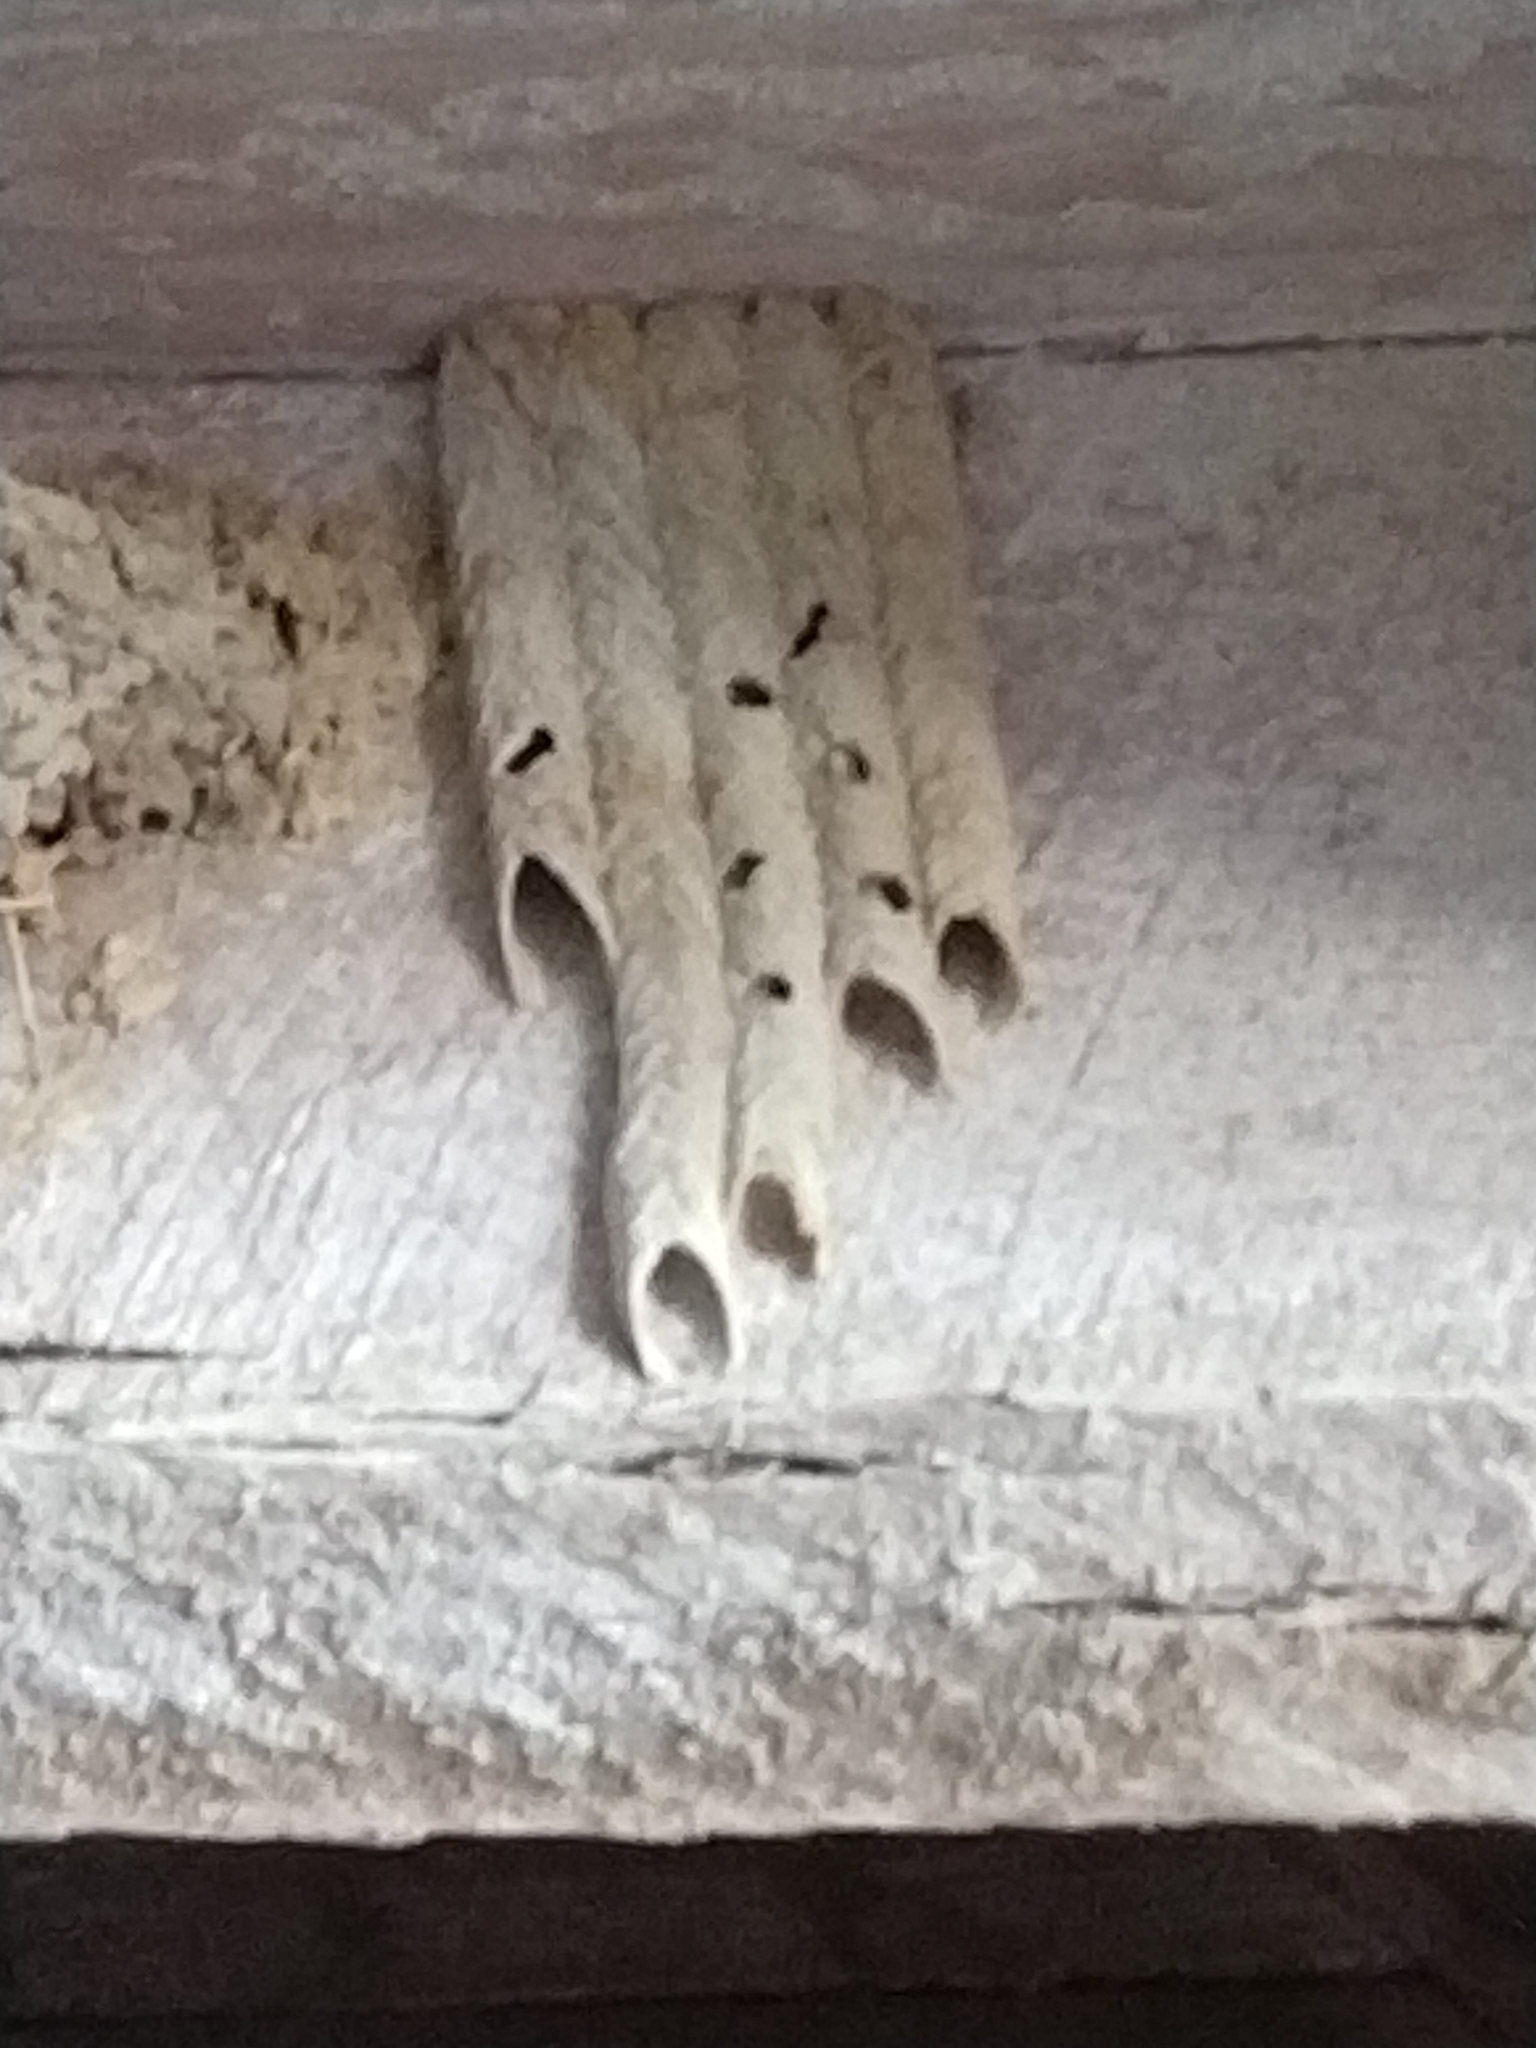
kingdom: Animalia
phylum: Arthropoda
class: Insecta
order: Hymenoptera
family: Crabronidae
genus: Trypoxylon
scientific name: Trypoxylon politum
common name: Organ-pipe mud-dauber wasp
